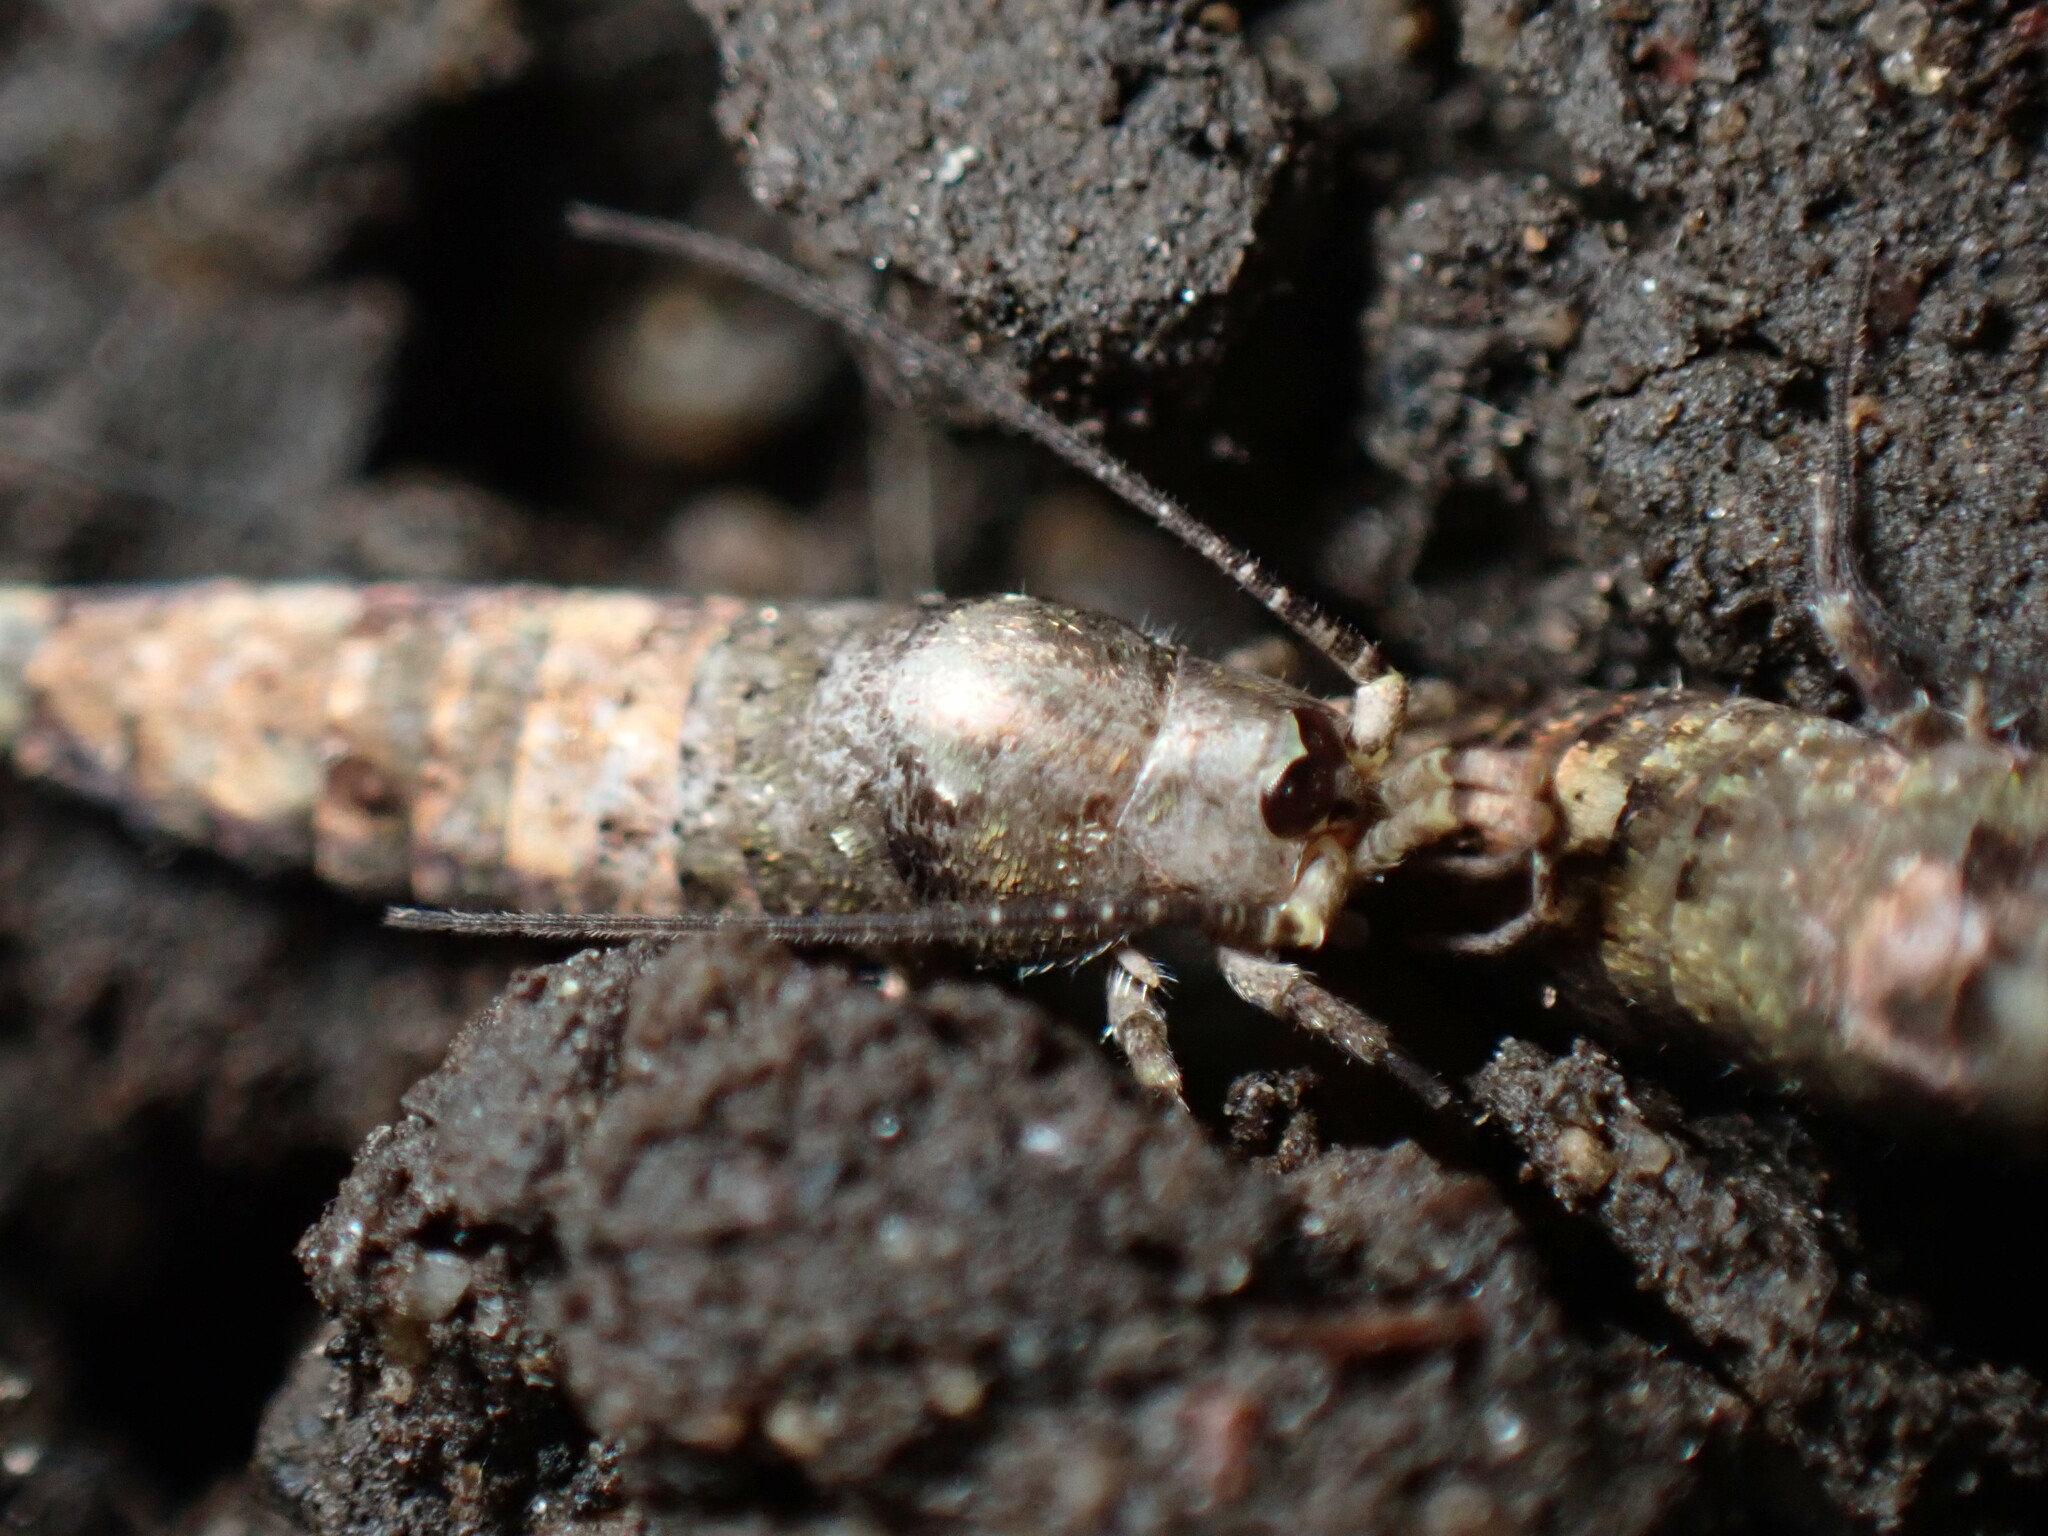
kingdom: Animalia
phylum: Arthropoda
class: Insecta
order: Archaeognatha
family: Machilidae
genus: Trigoniophthalmus
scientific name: Trigoniophthalmus alternatus
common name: Jumping bristletail
